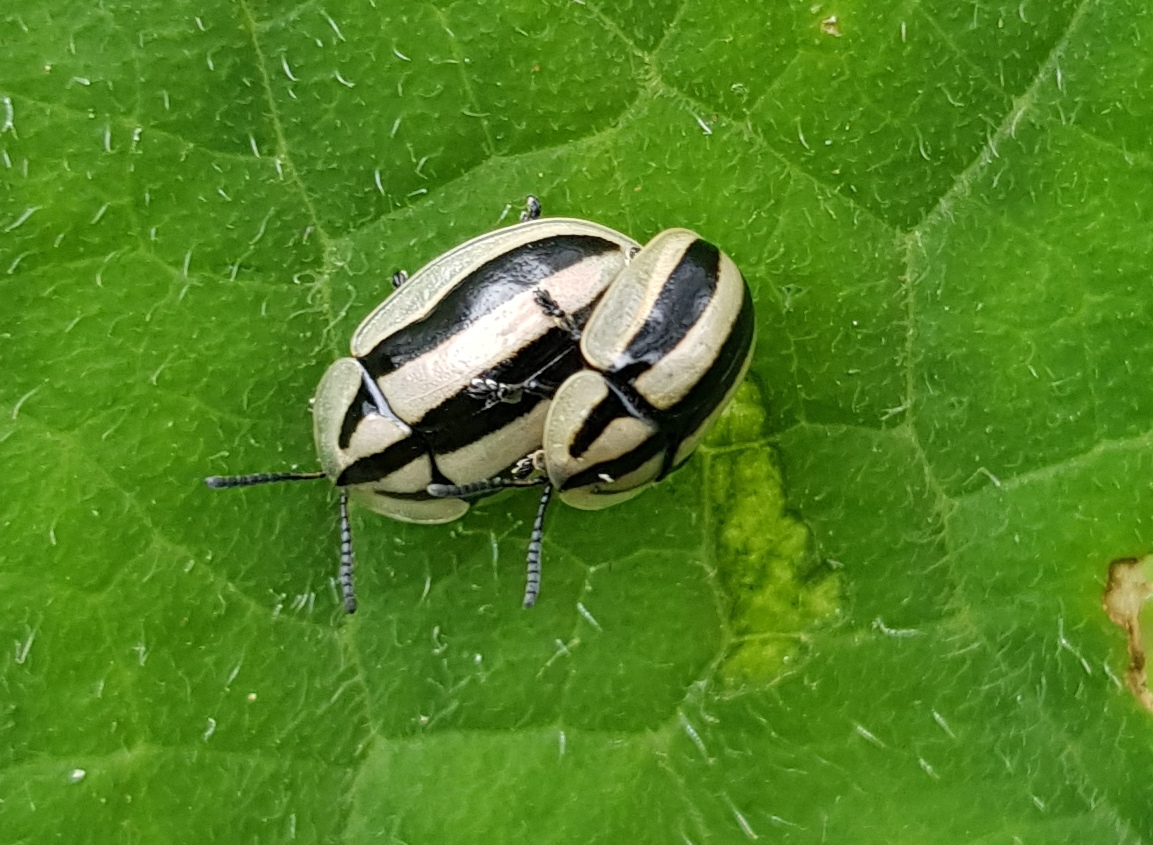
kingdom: Animalia
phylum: Arthropoda
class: Insecta
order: Coleoptera
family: Chrysomelidae
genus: Physonota
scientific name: Physonota disjuncta
